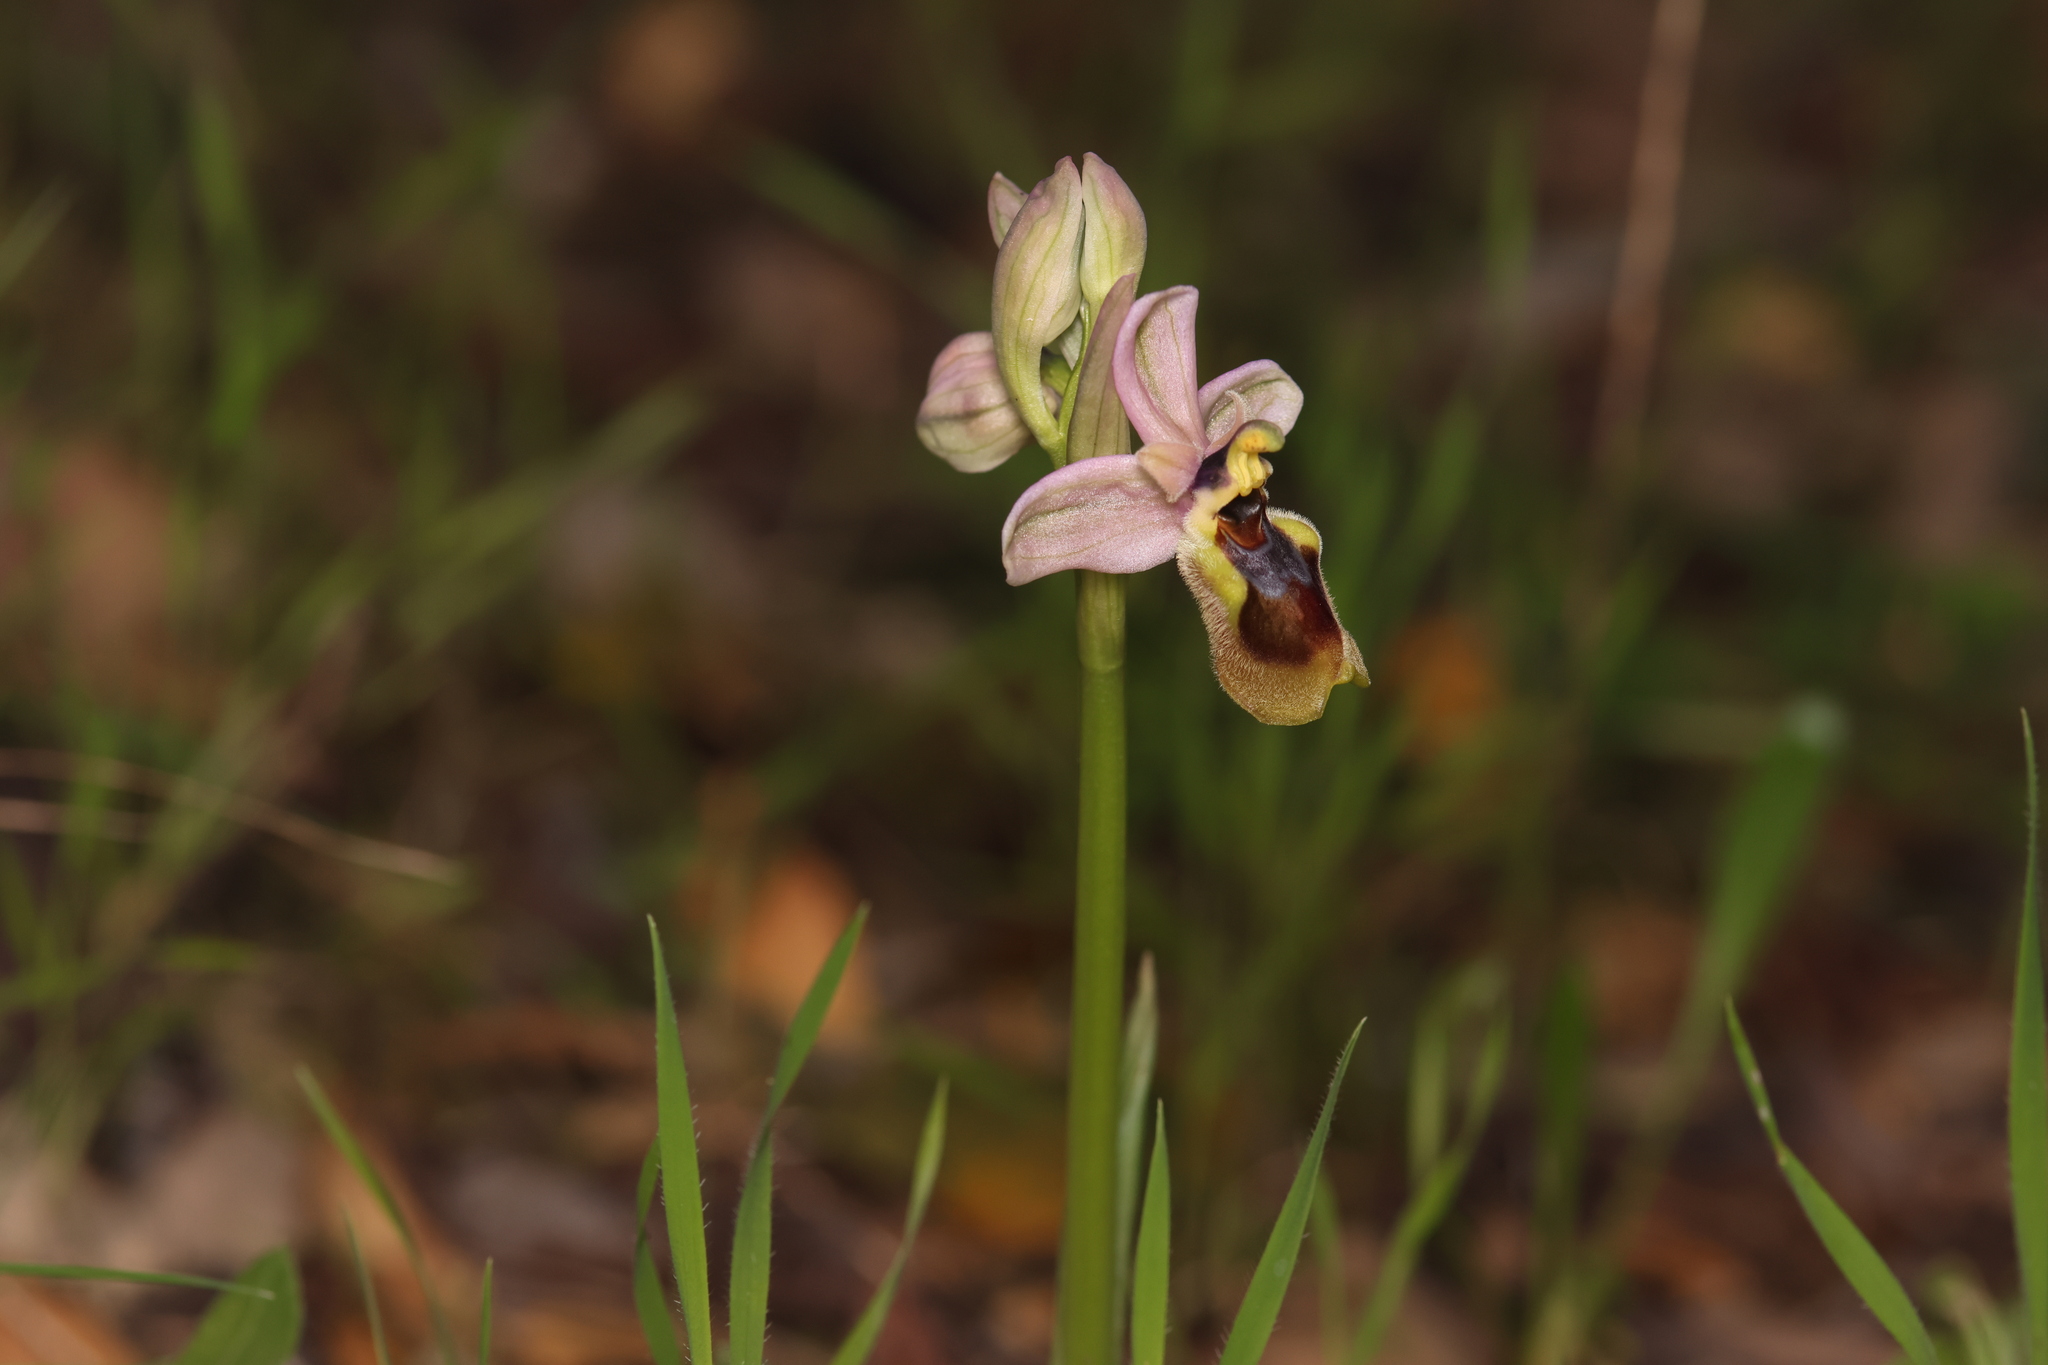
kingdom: Plantae
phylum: Tracheophyta
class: Liliopsida
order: Asparagales
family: Orchidaceae
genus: Ophrys
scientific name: Ophrys tenthredinifera
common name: Sawfly orchid
